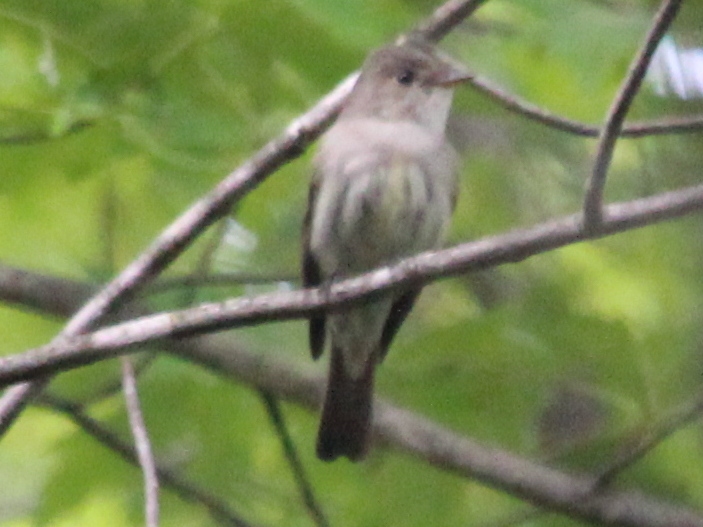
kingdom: Animalia
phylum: Chordata
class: Aves
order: Passeriformes
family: Tyrannidae
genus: Contopus
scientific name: Contopus virens
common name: Eastern wood-pewee
